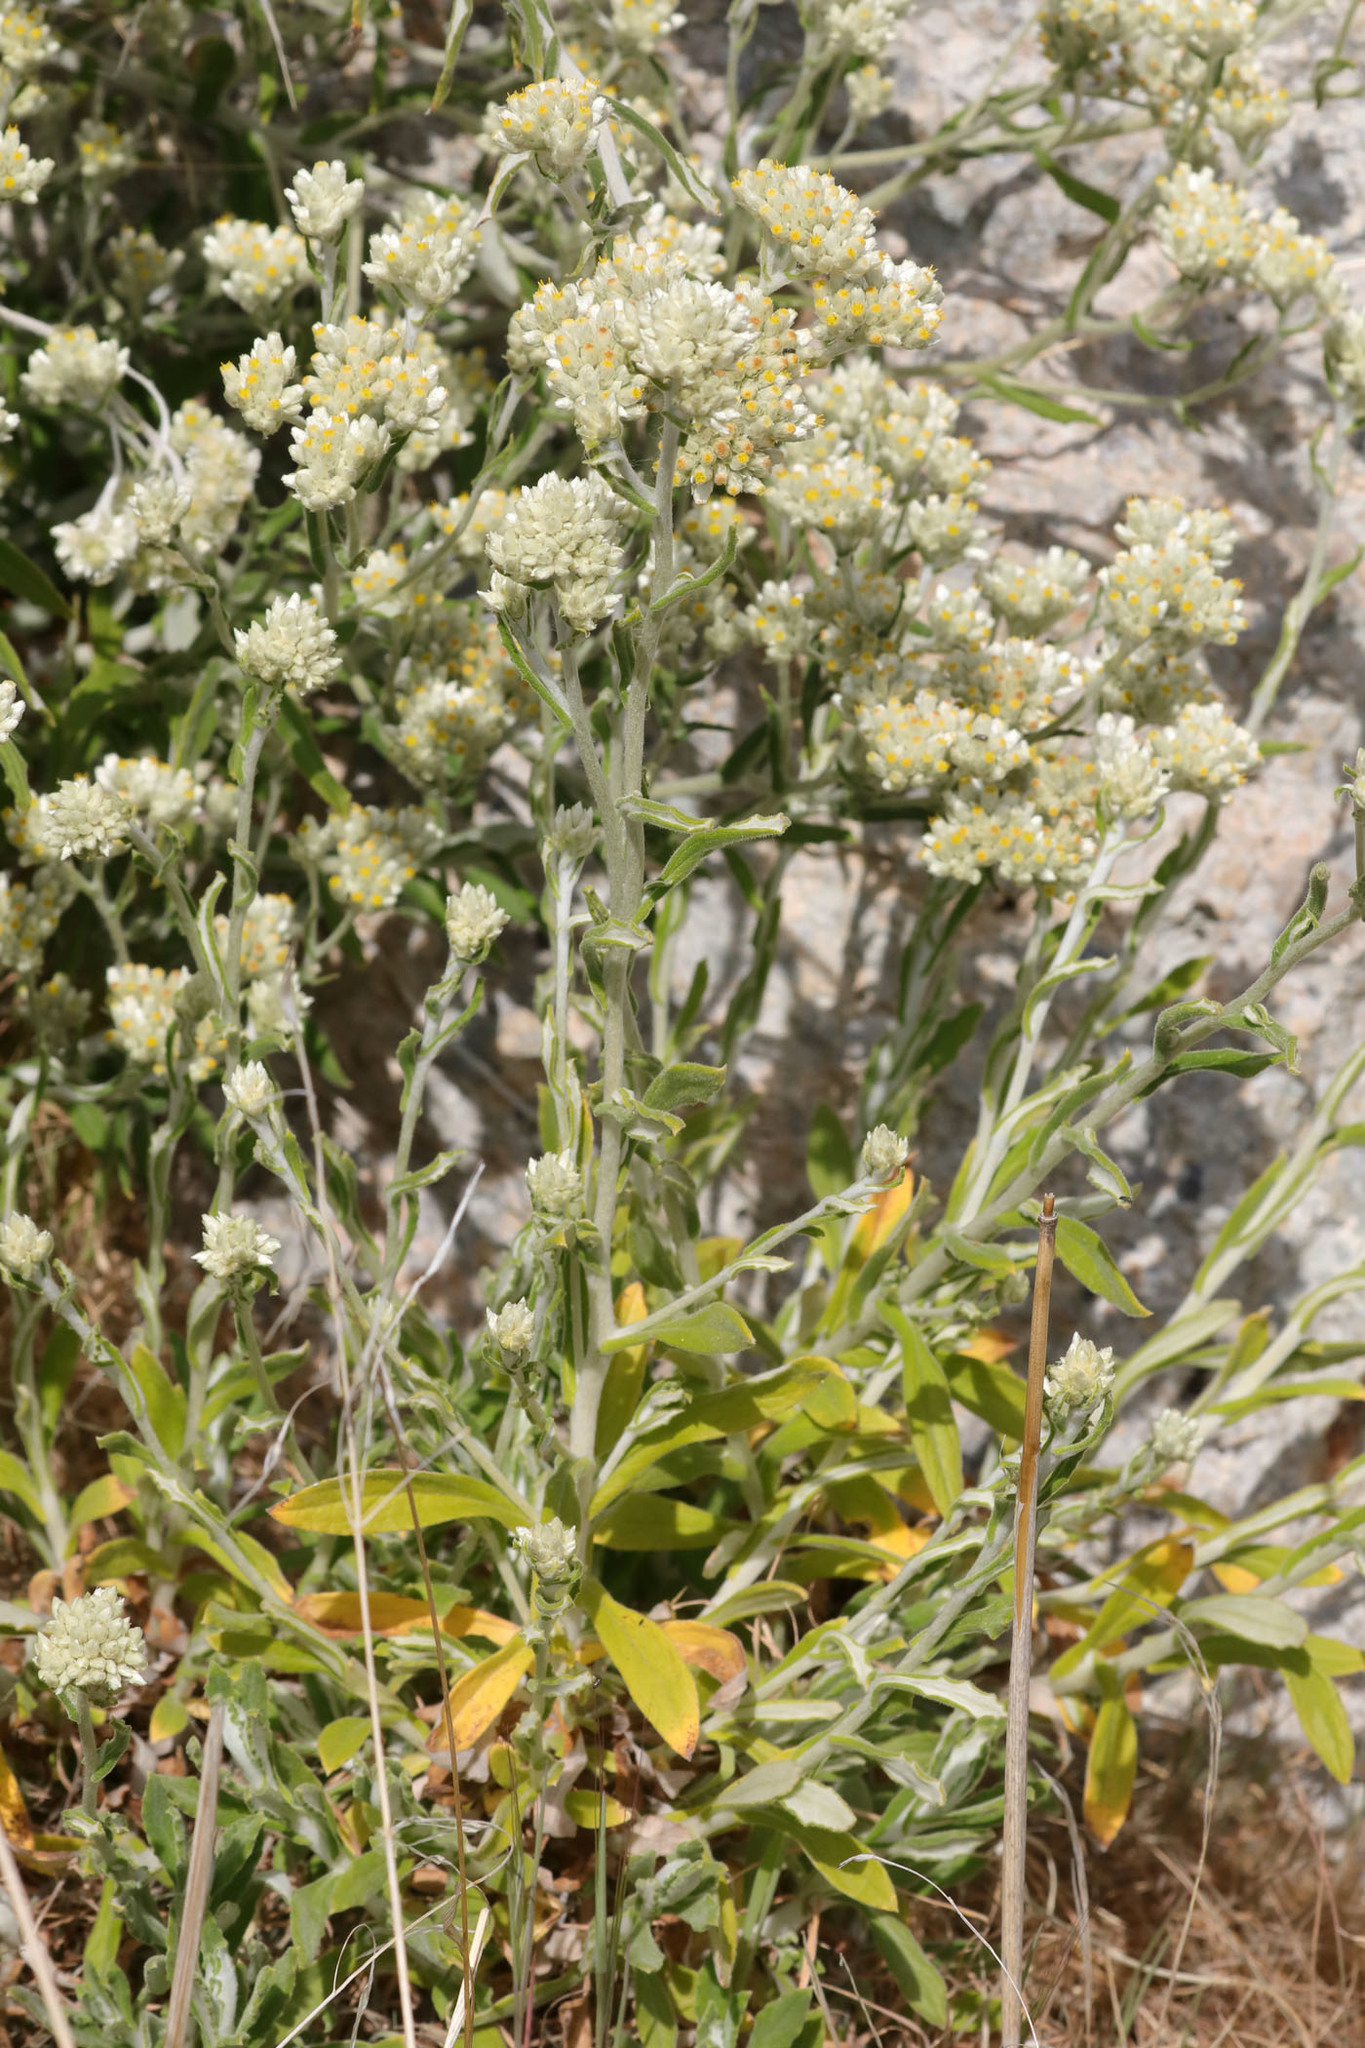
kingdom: Plantae
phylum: Tracheophyta
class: Magnoliopsida
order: Asterales
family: Asteraceae
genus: Pseudognaphalium
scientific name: Pseudognaphalium biolettii
